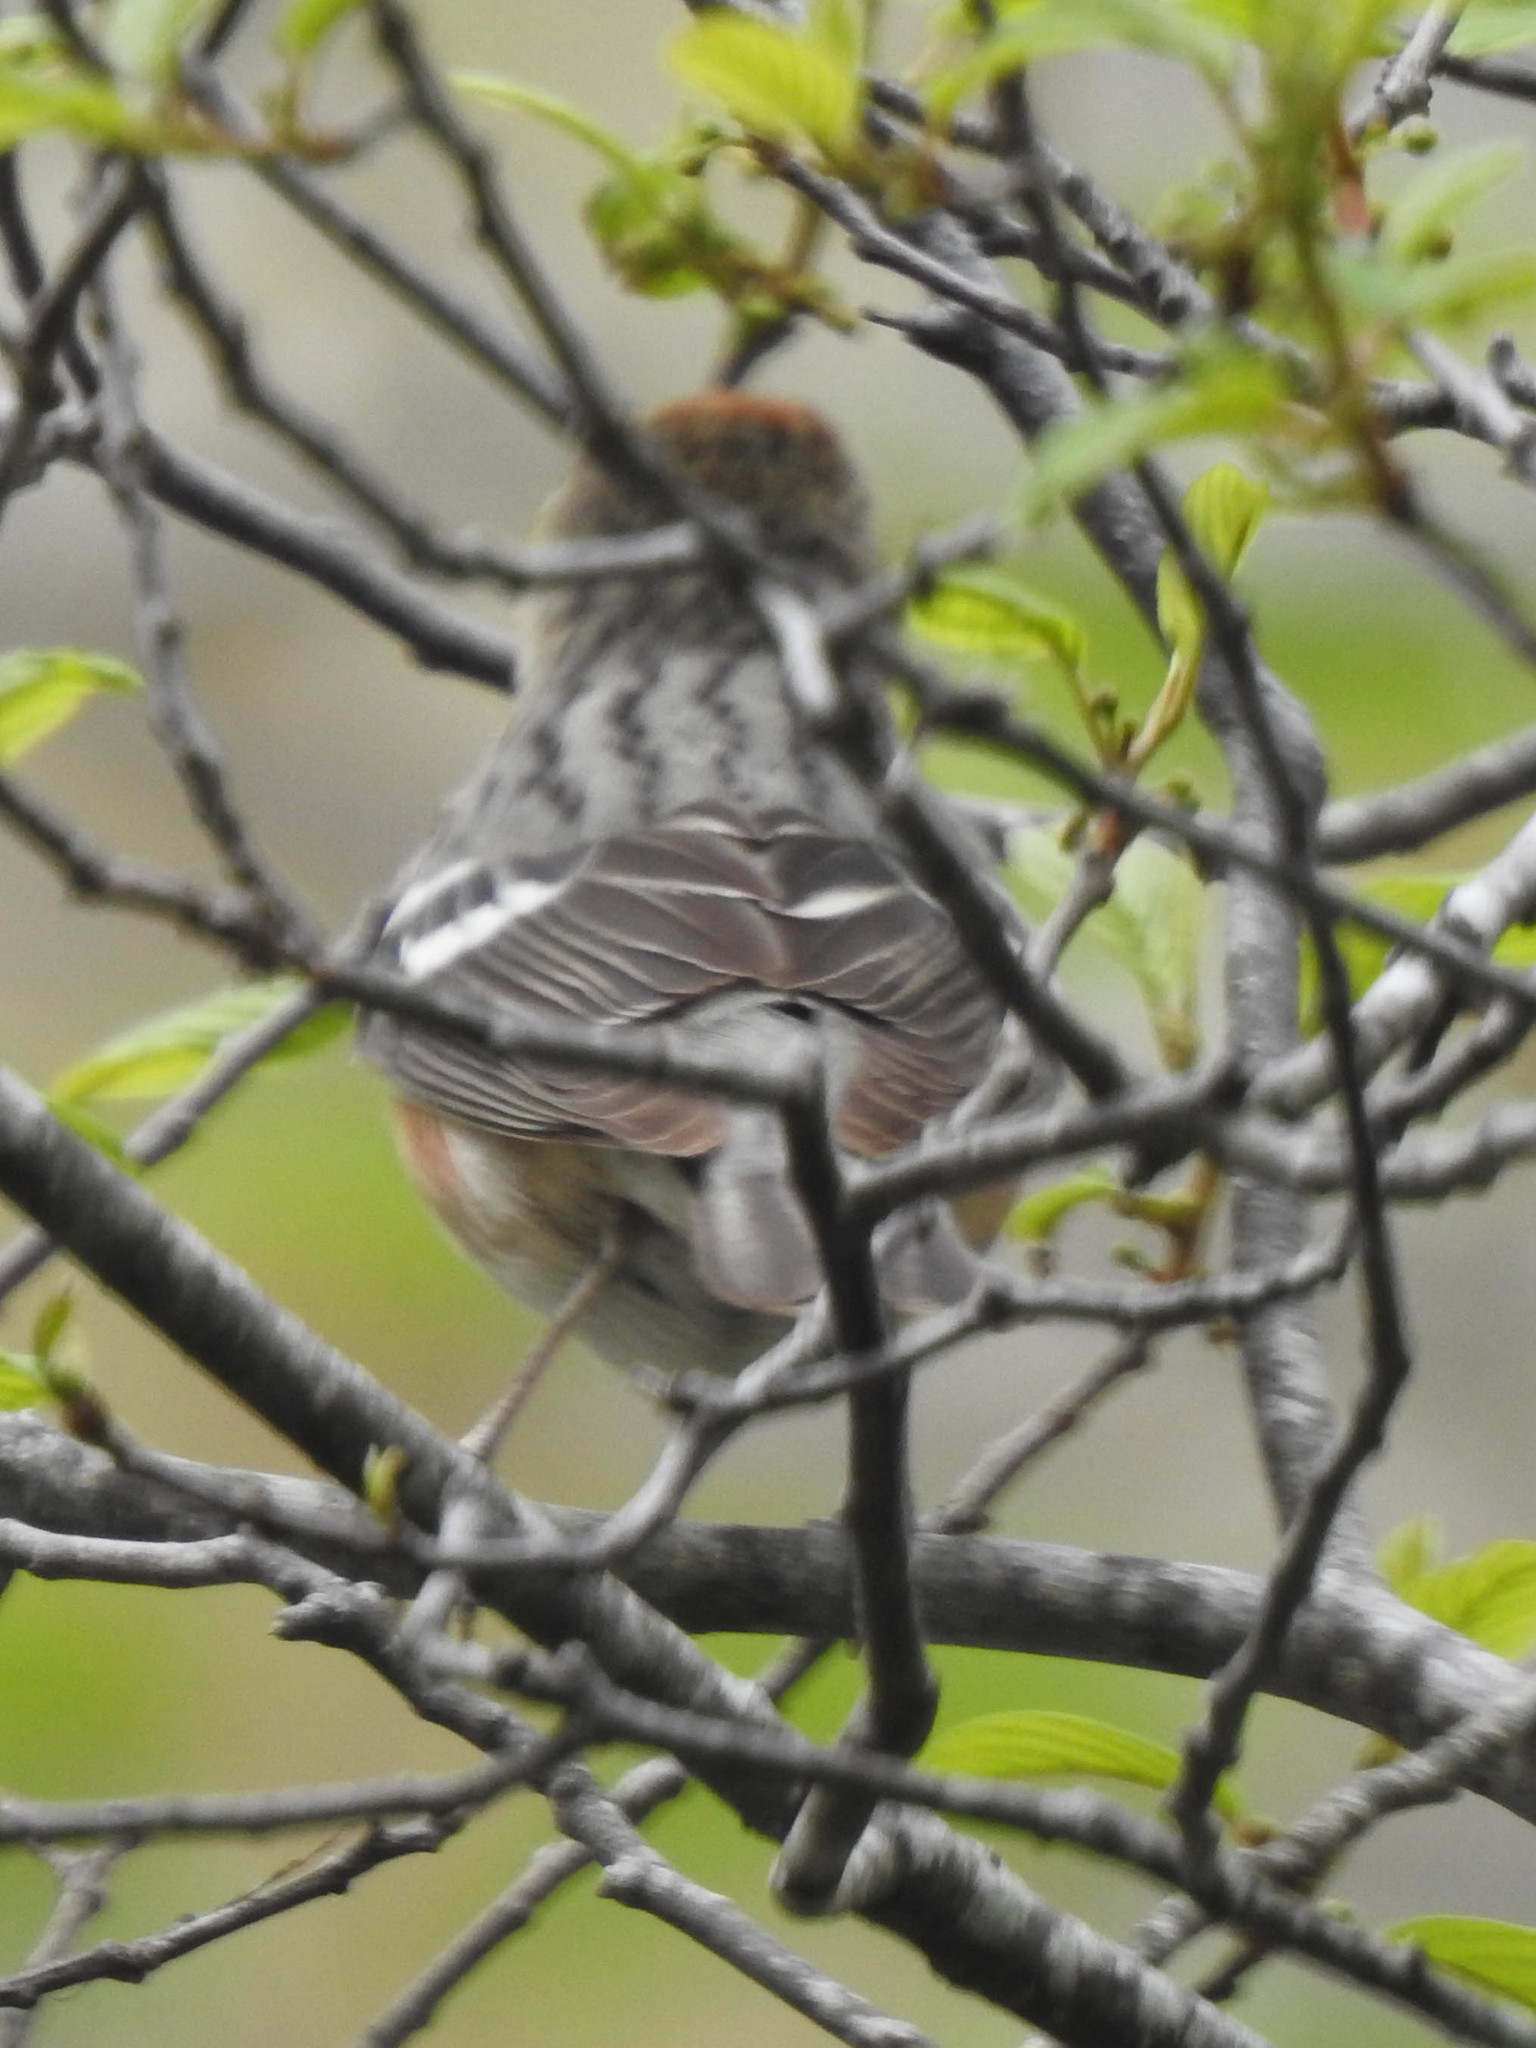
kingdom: Animalia
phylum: Chordata
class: Aves
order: Passeriformes
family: Parulidae
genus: Setophaga
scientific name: Setophaga castanea
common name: Bay-breasted warbler
